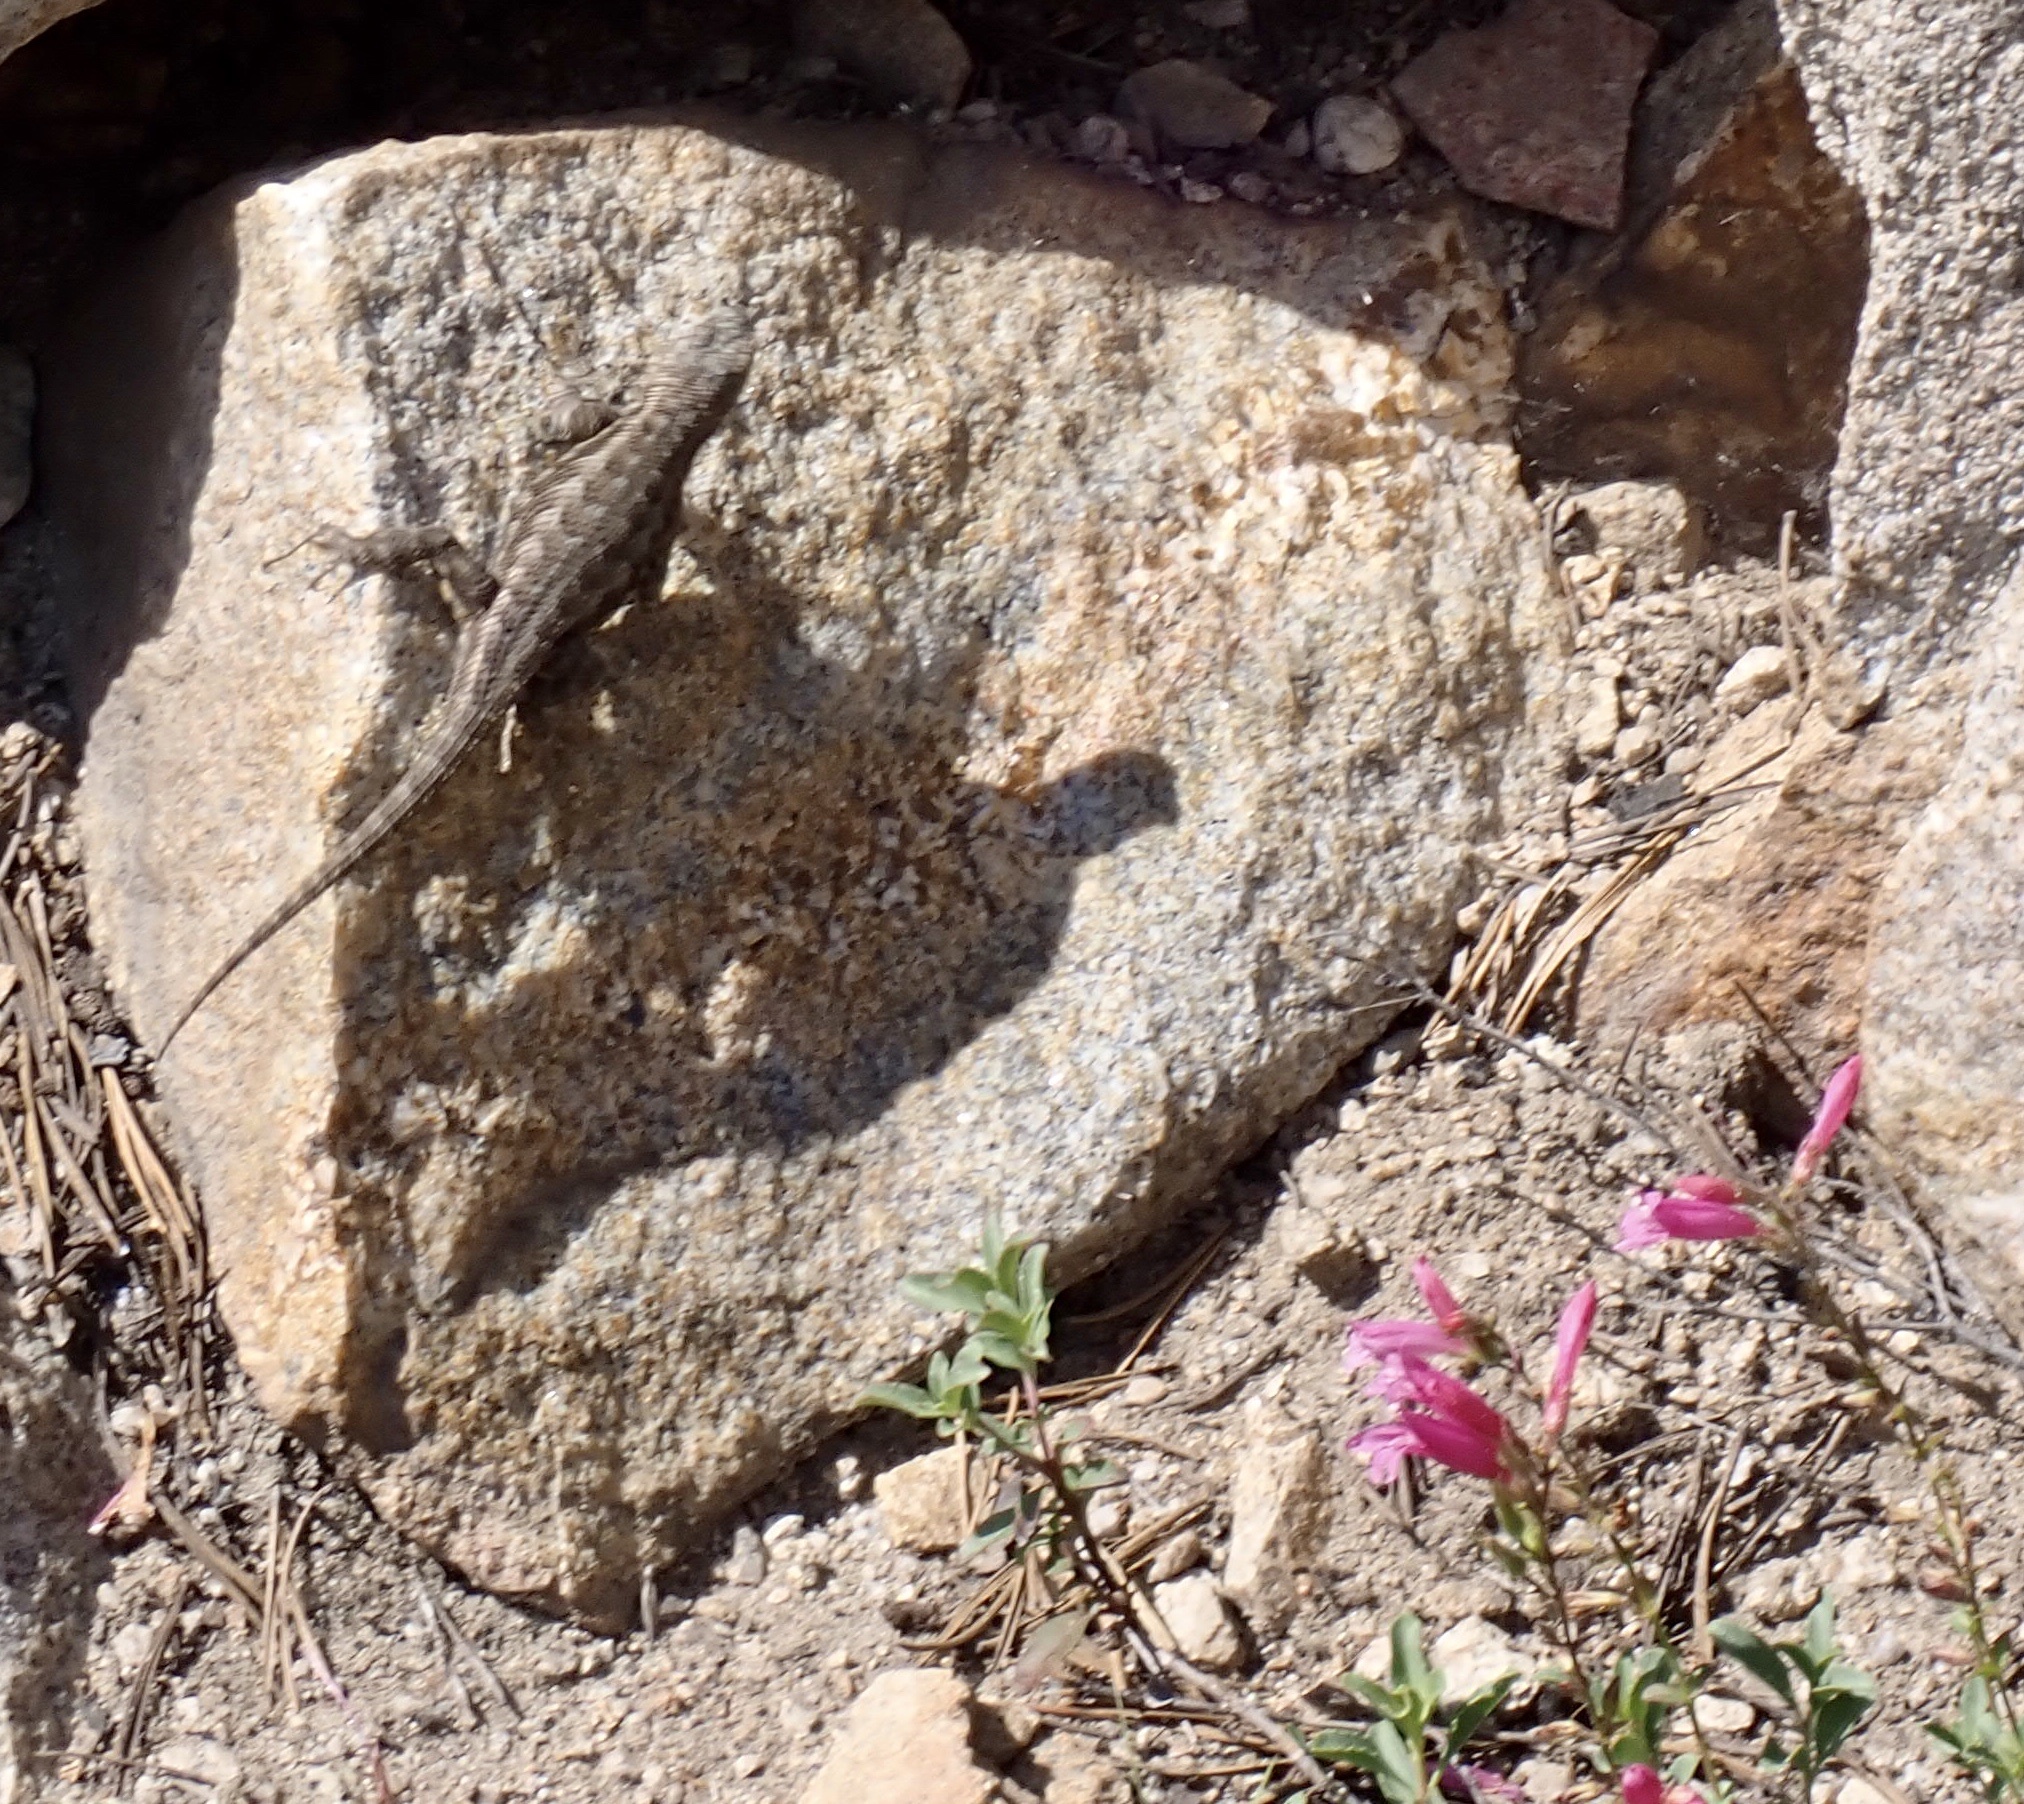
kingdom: Animalia
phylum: Chordata
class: Squamata
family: Phrynosomatidae
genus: Sceloporus
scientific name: Sceloporus occidentalis
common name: Western fence lizard
